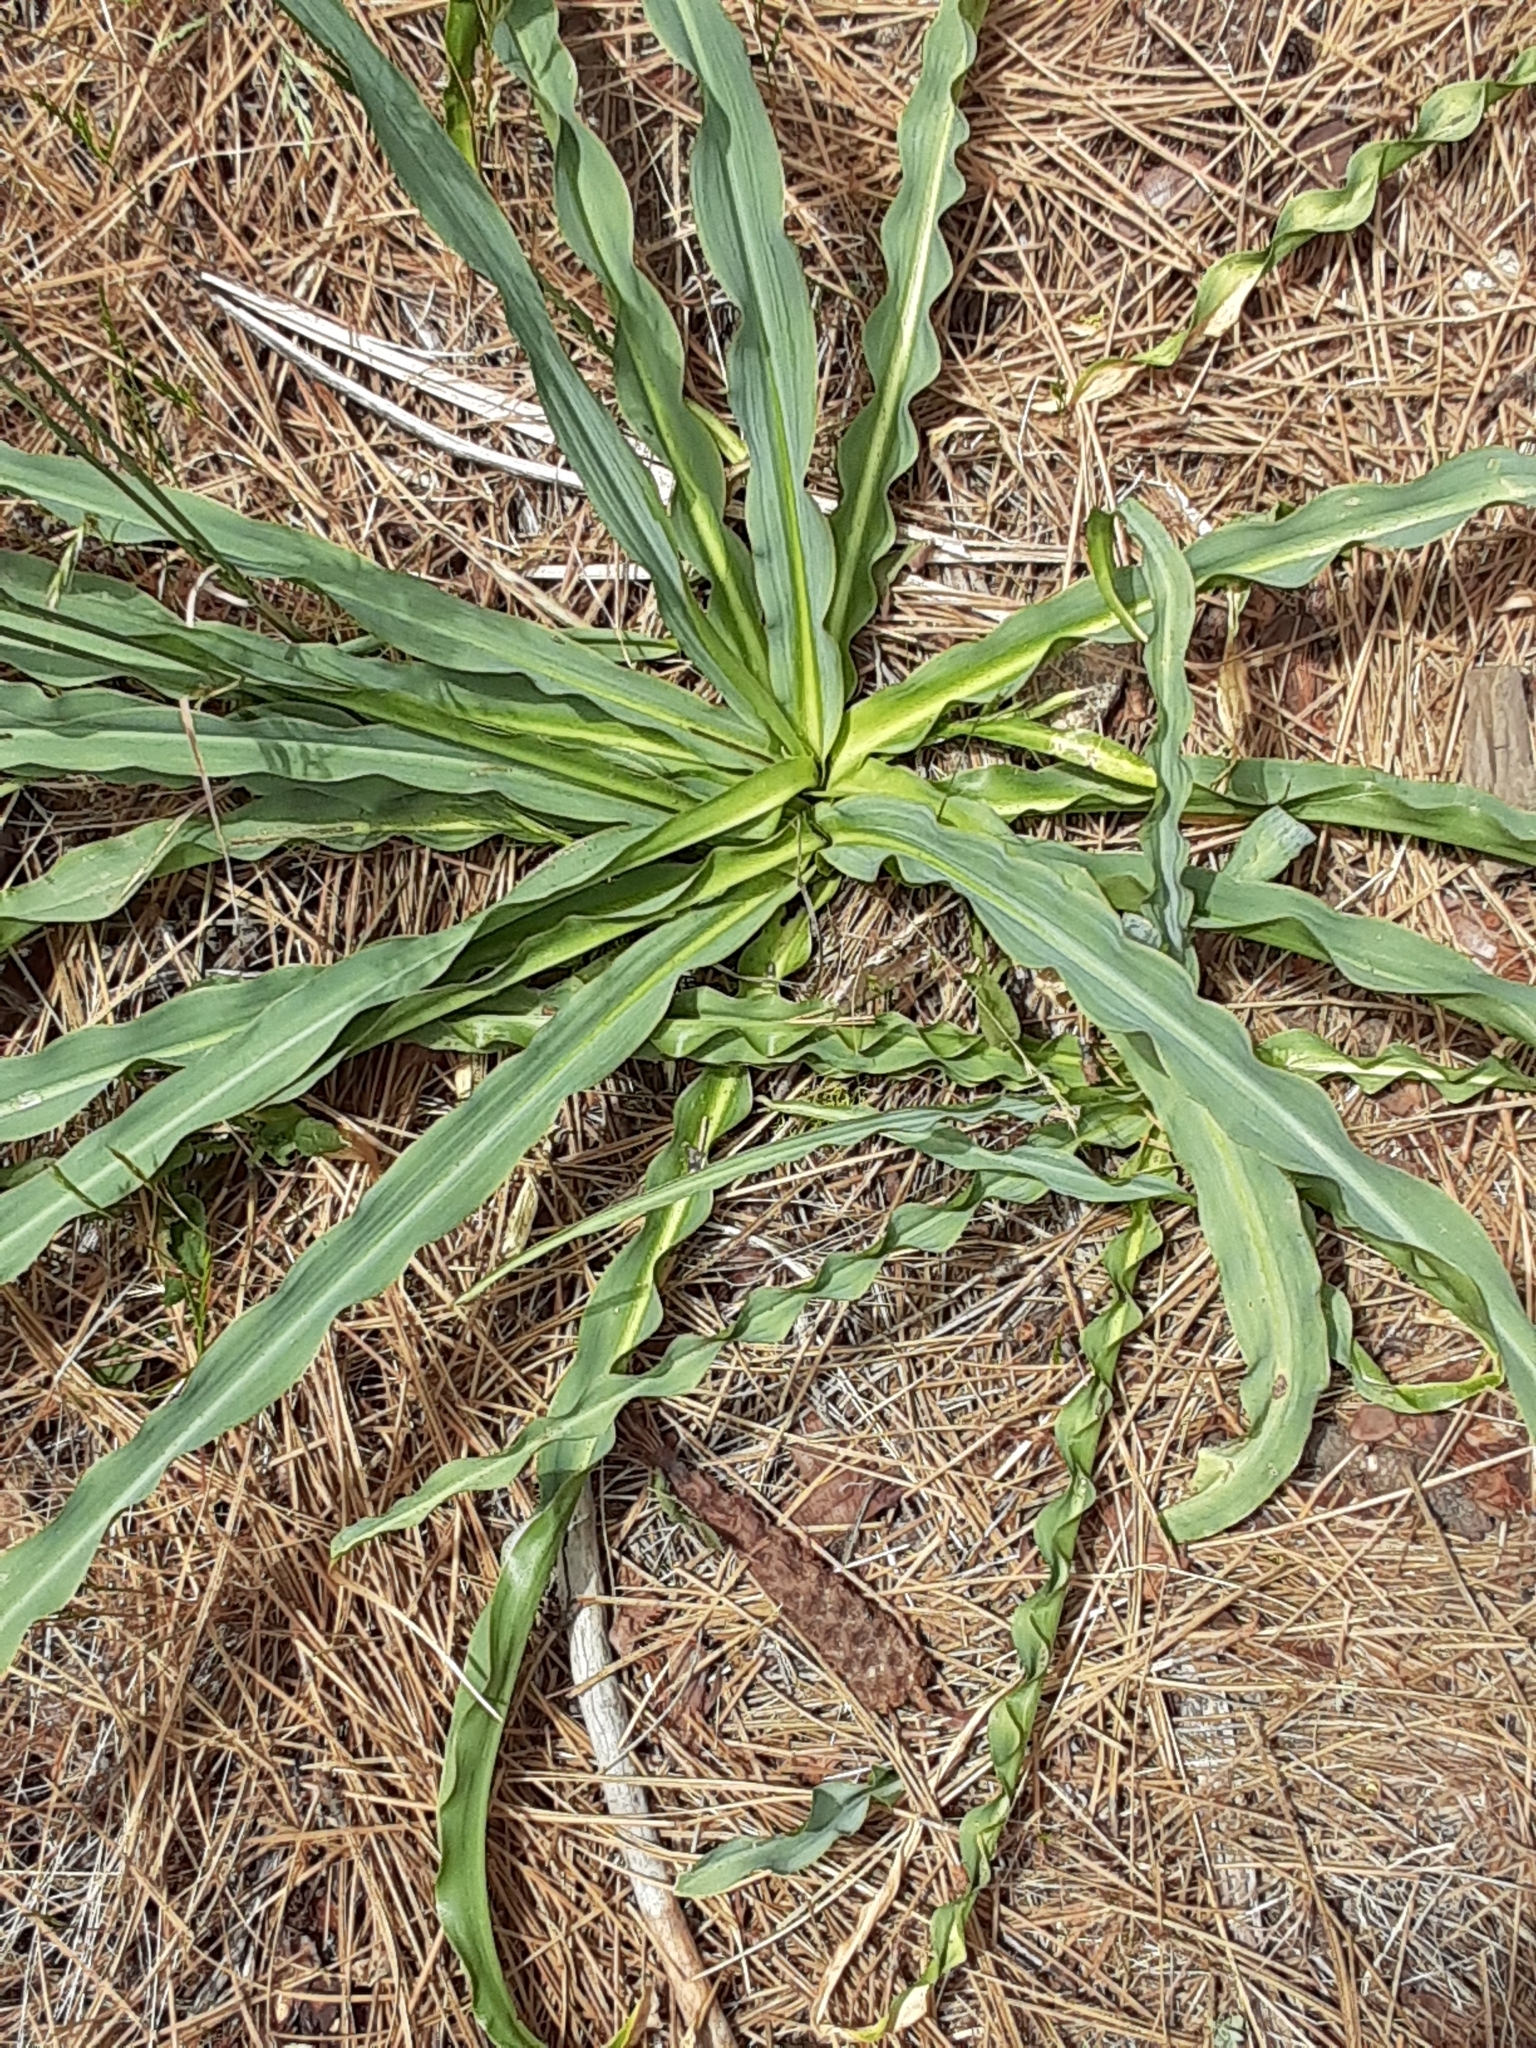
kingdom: Plantae
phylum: Tracheophyta
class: Liliopsida
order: Asparagales
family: Asparagaceae
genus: Chlorogalum
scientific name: Chlorogalum pomeridianum
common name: Amole
